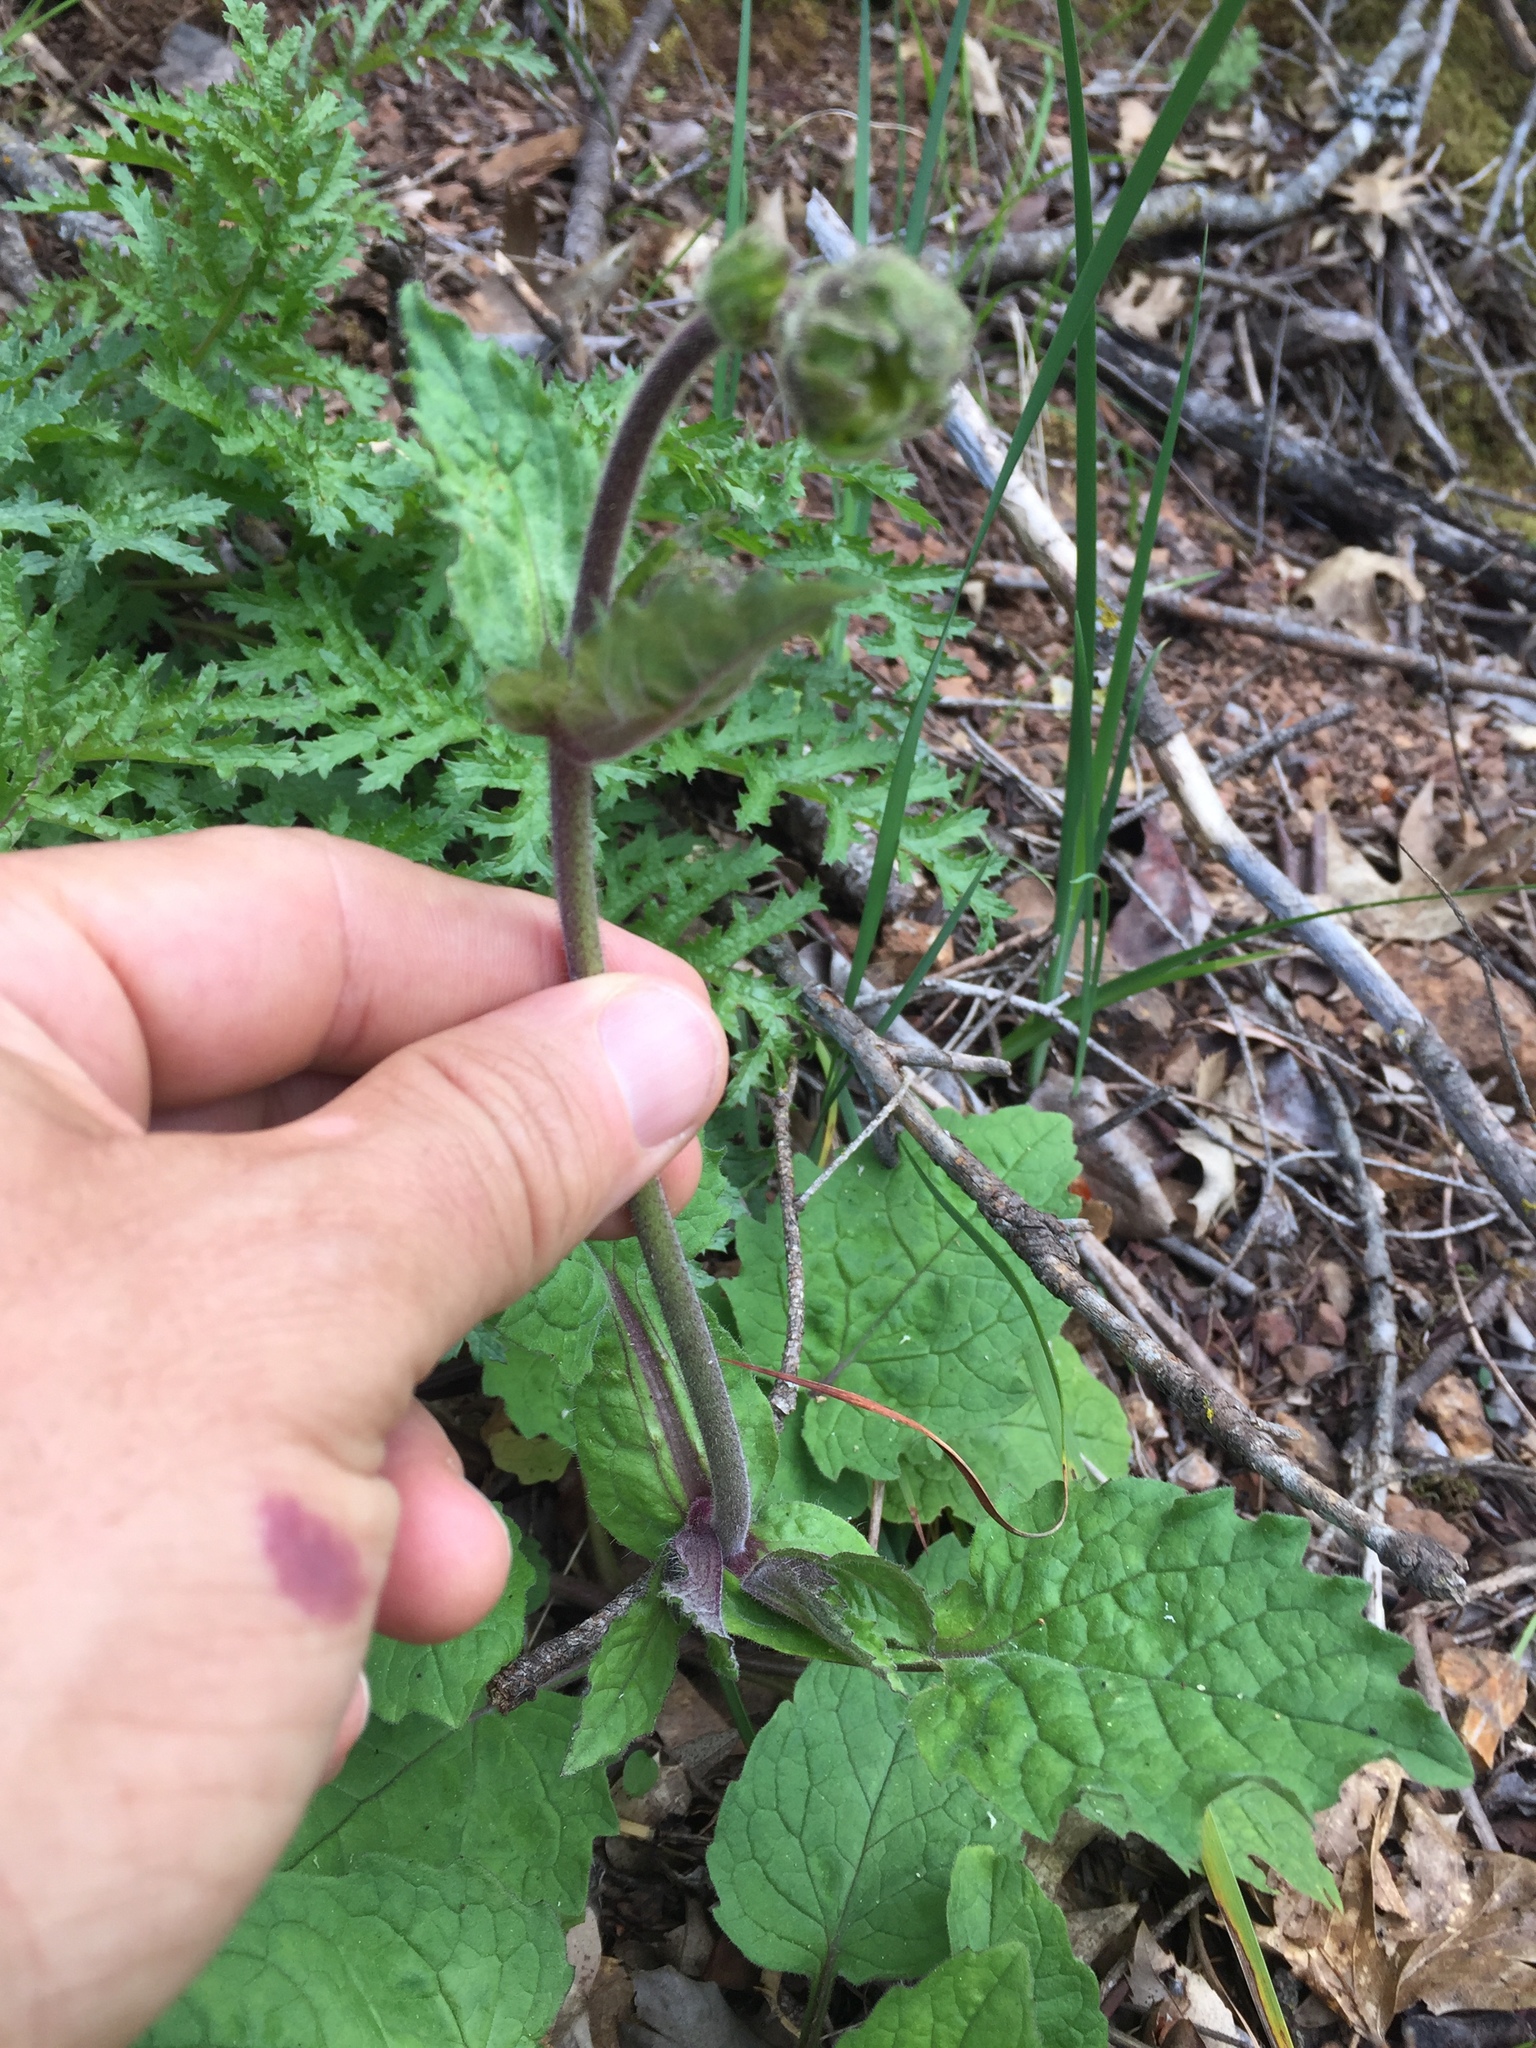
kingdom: Plantae
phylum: Tracheophyta
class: Magnoliopsida
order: Asterales
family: Asteraceae
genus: Arnica
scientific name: Arnica discoidea
